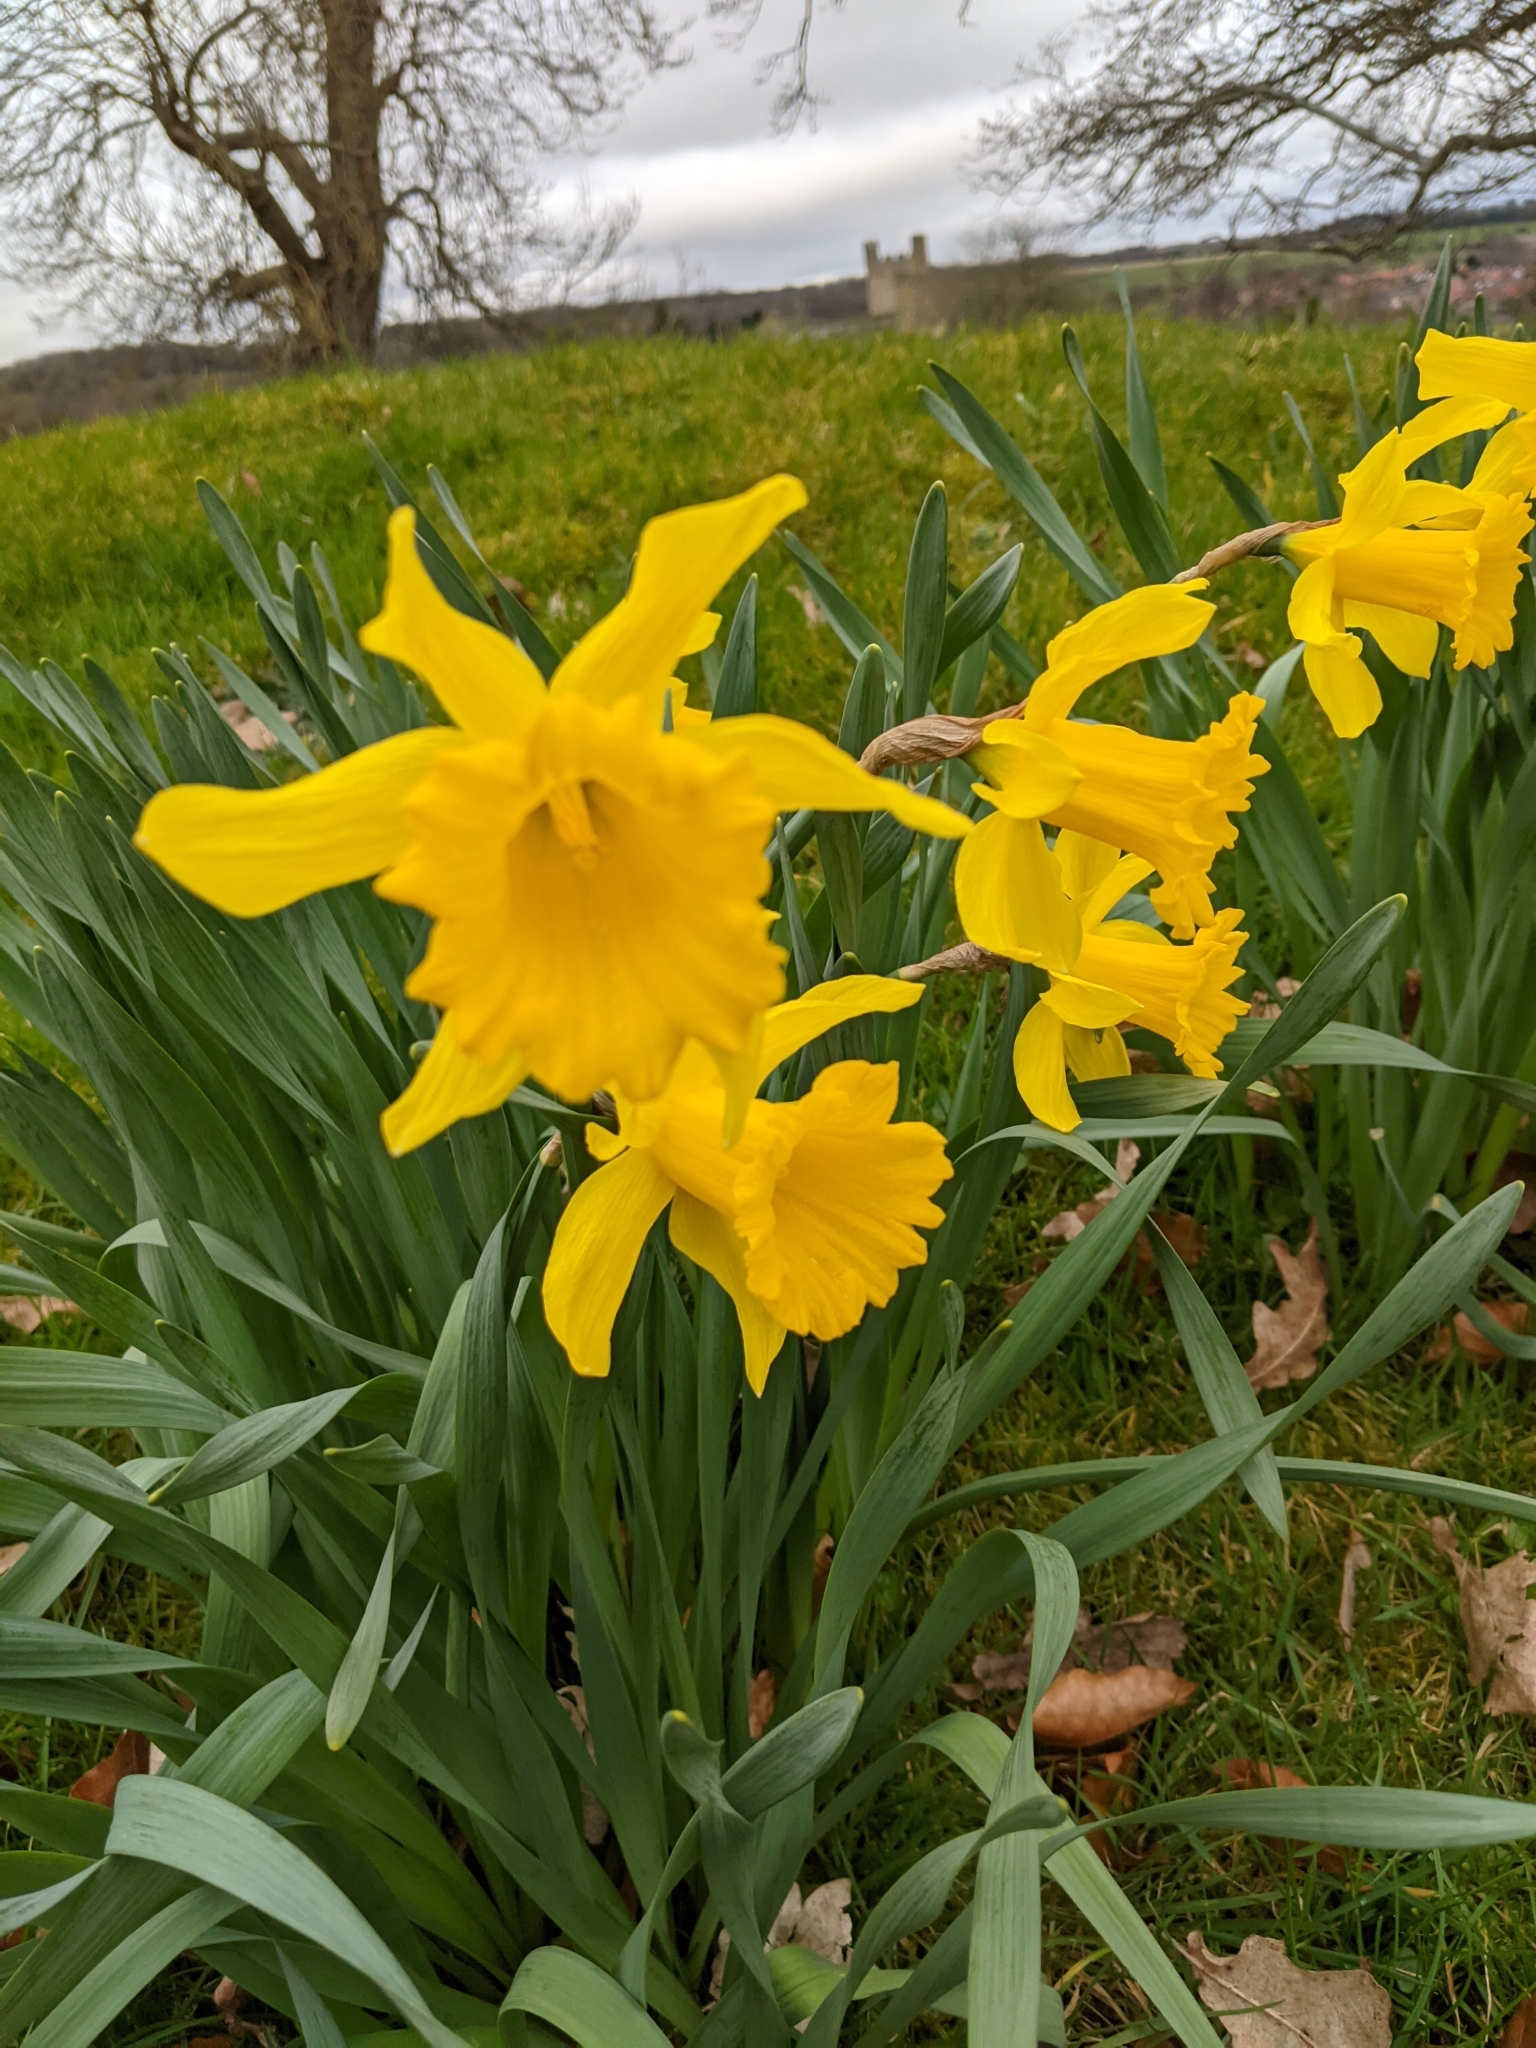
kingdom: Plantae
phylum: Tracheophyta
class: Liliopsida
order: Asparagales
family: Amaryllidaceae
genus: Narcissus
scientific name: Narcissus hispanicus
